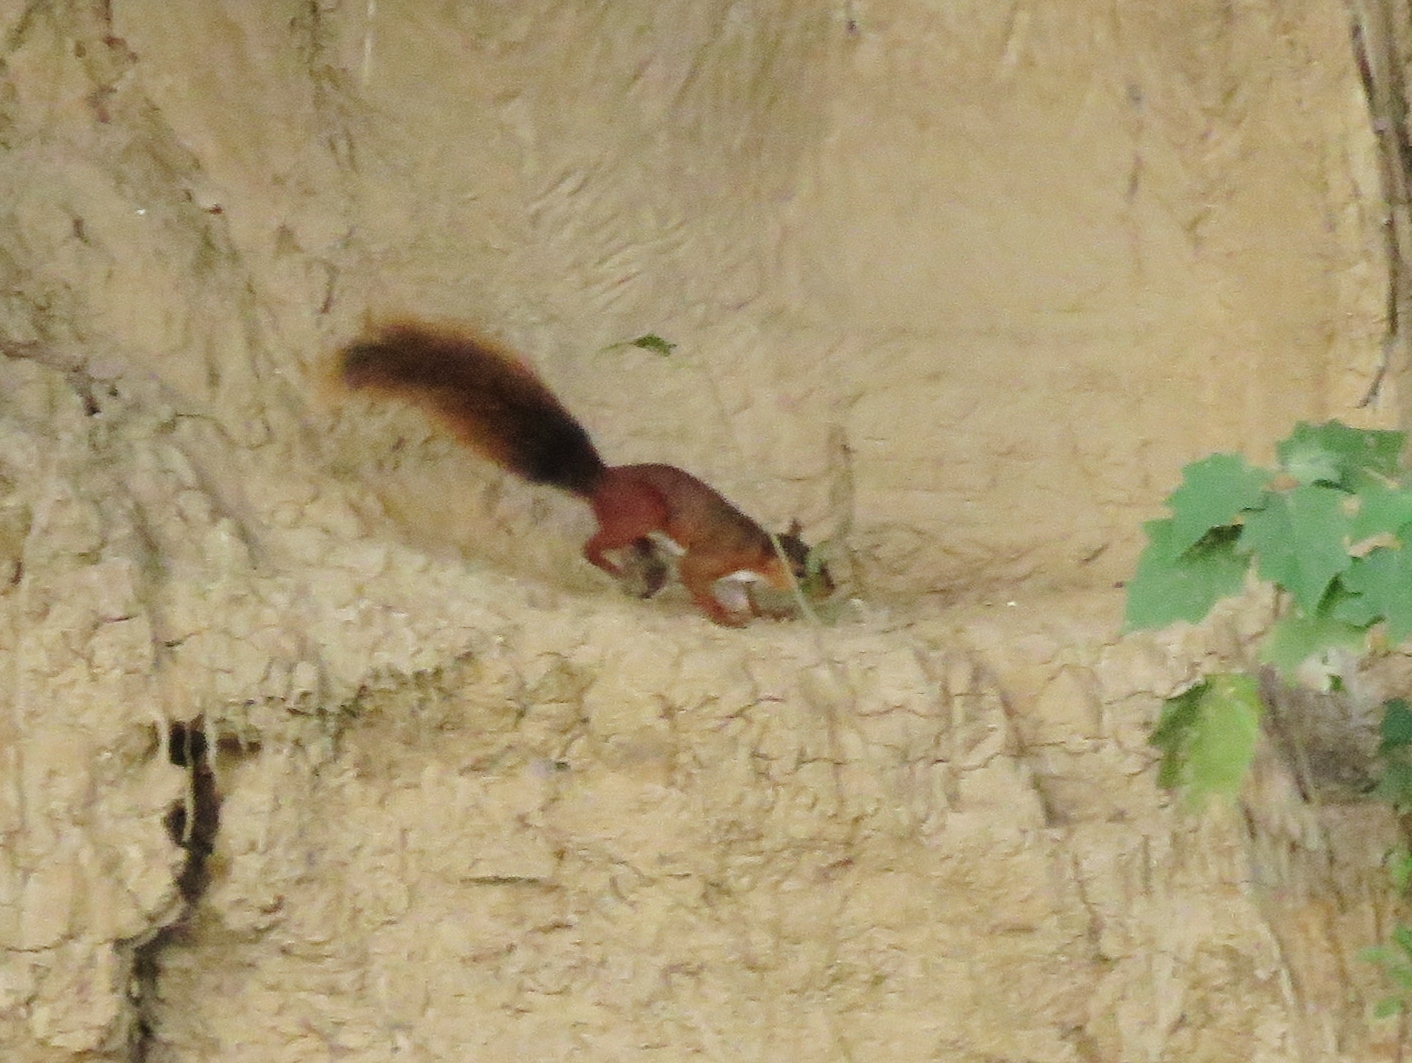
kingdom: Animalia
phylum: Chordata
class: Mammalia
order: Rodentia
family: Sciuridae
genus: Sciurus
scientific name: Sciurus spadiceus
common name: Southern amazon red squirrel
